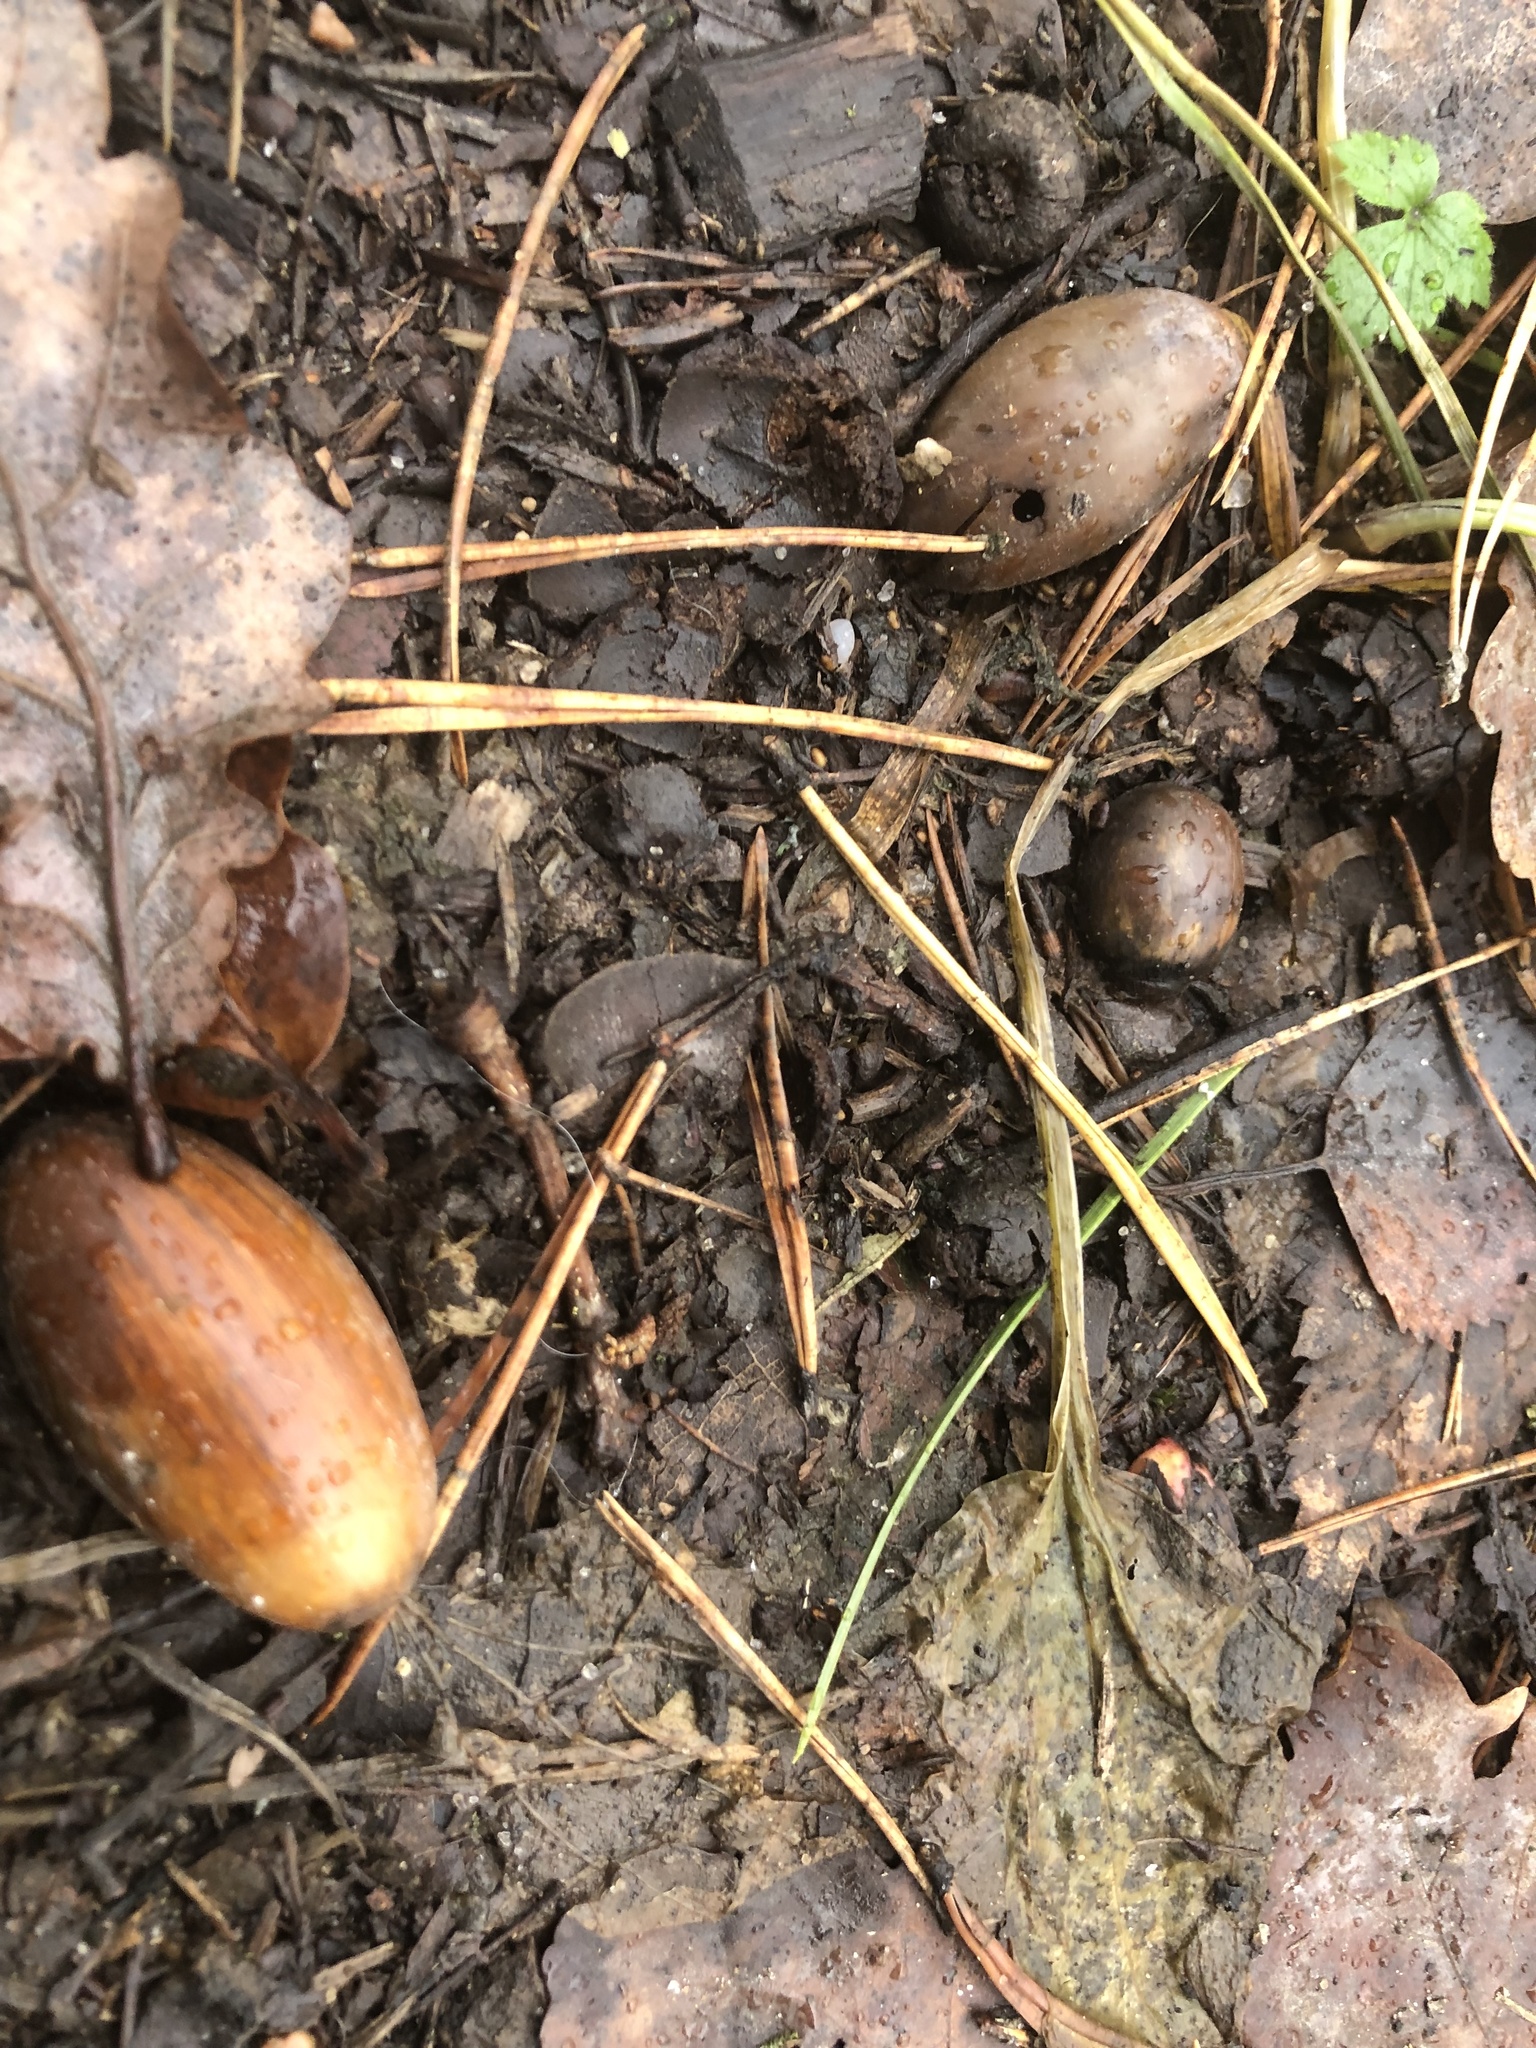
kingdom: Plantae
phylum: Tracheophyta
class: Magnoliopsida
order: Fagales
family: Fagaceae
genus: Quercus
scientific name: Quercus robur
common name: Pedunculate oak
